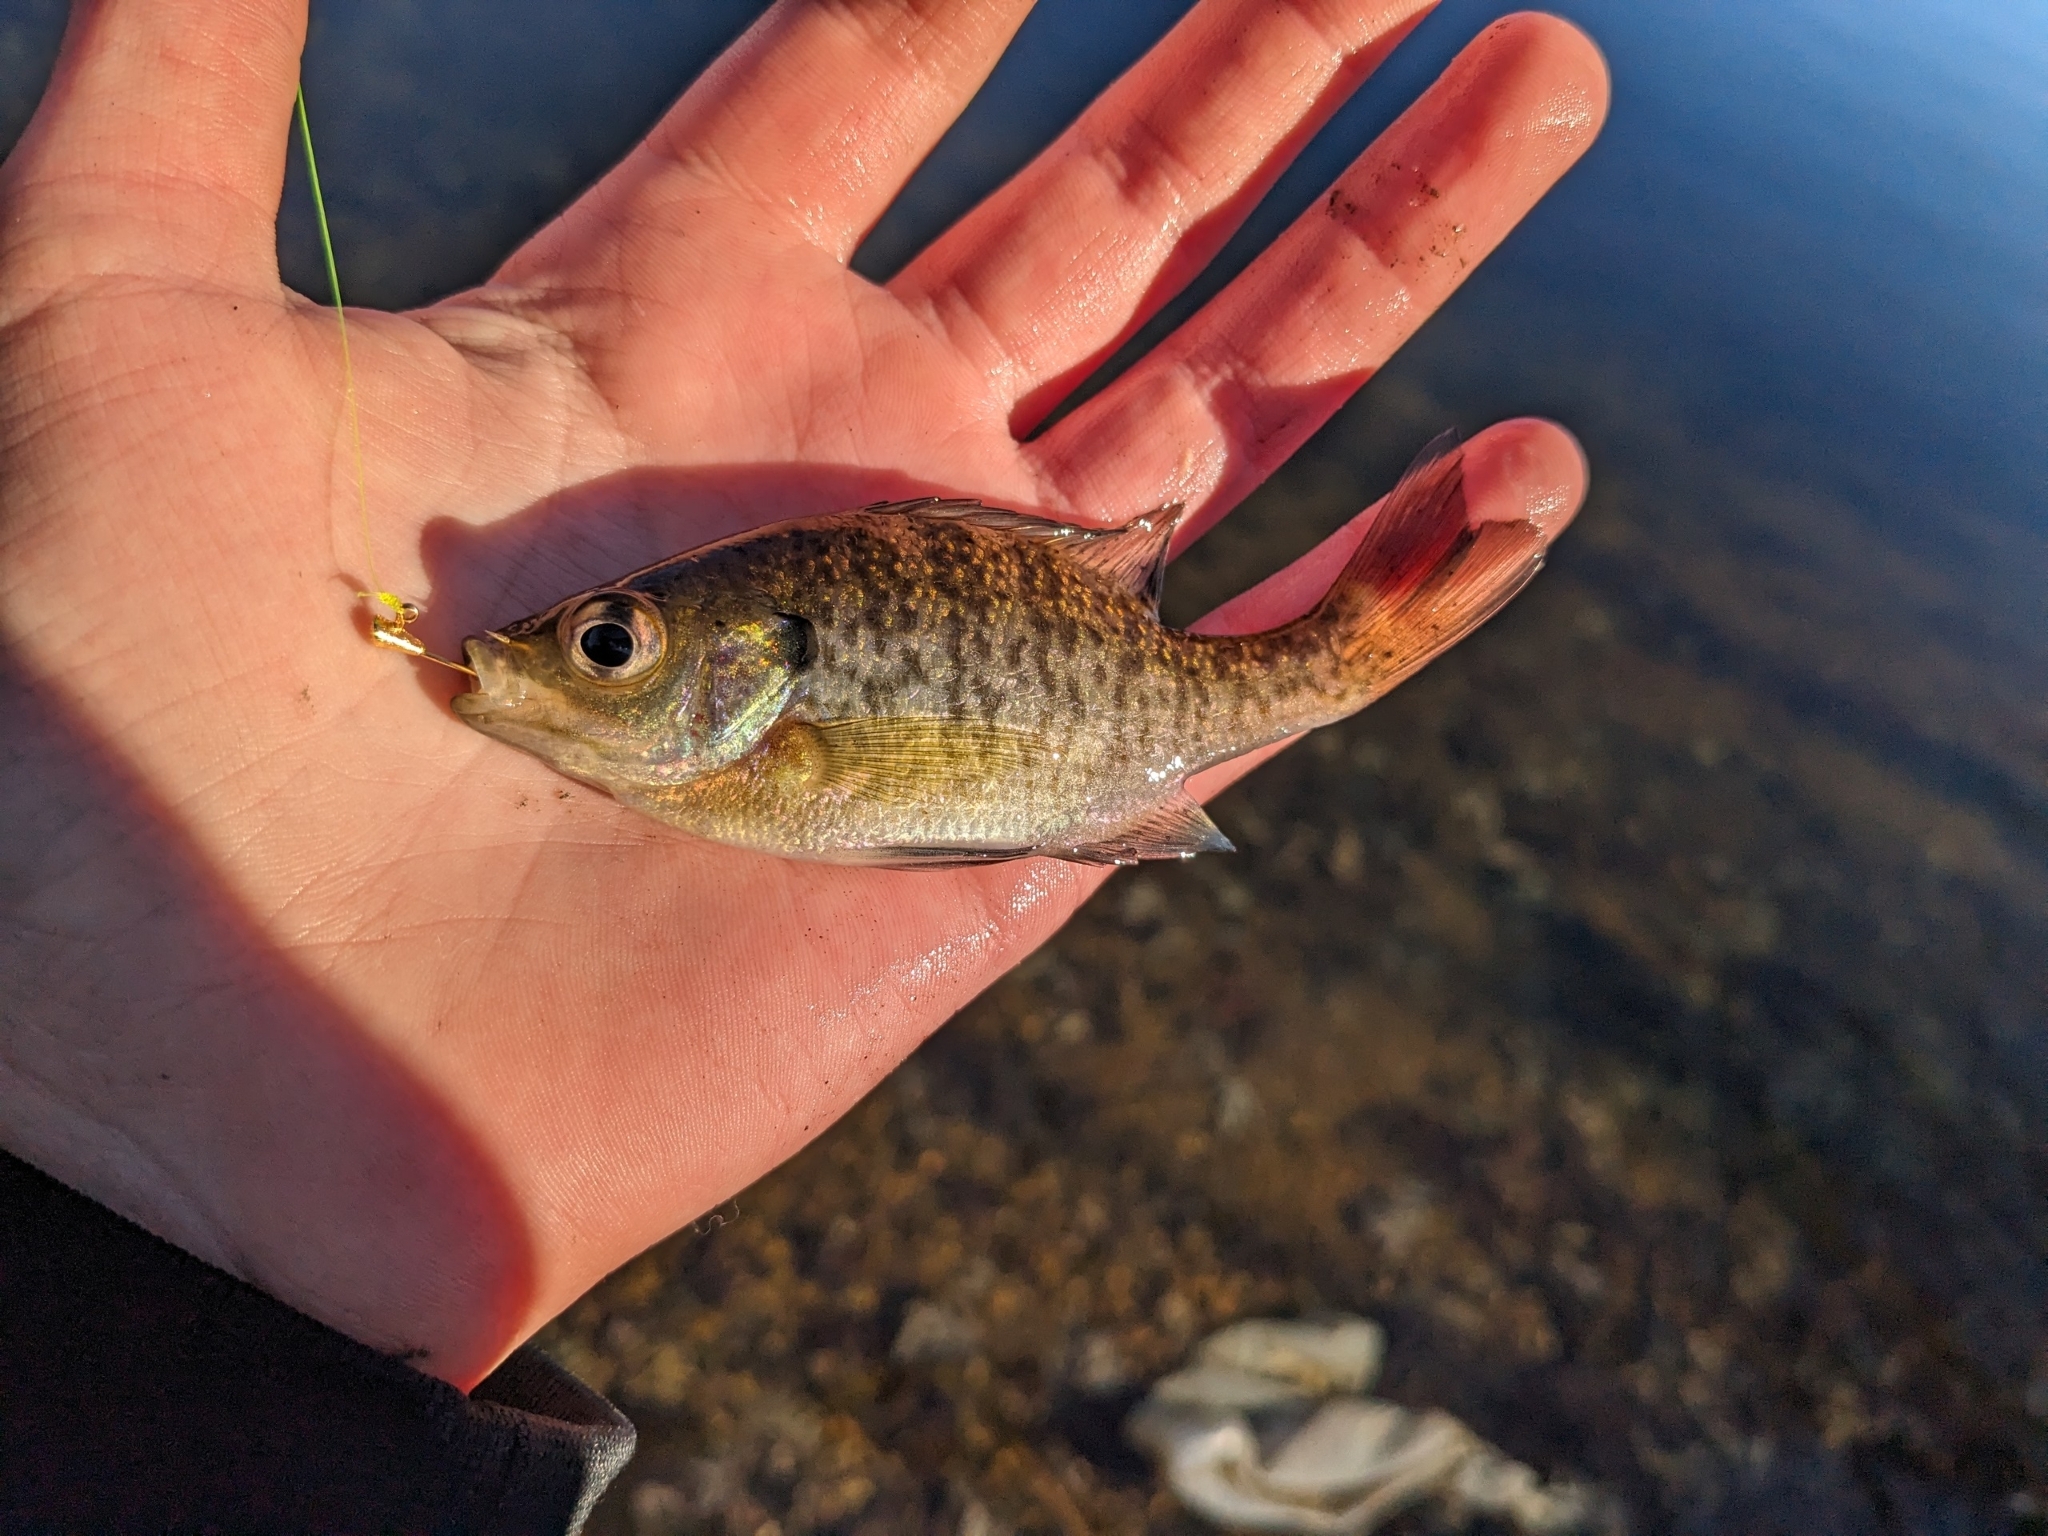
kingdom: Animalia
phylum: Chordata
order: Perciformes
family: Centrarchidae
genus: Lepomis
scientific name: Lepomis macrochirus
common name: Bluegill
